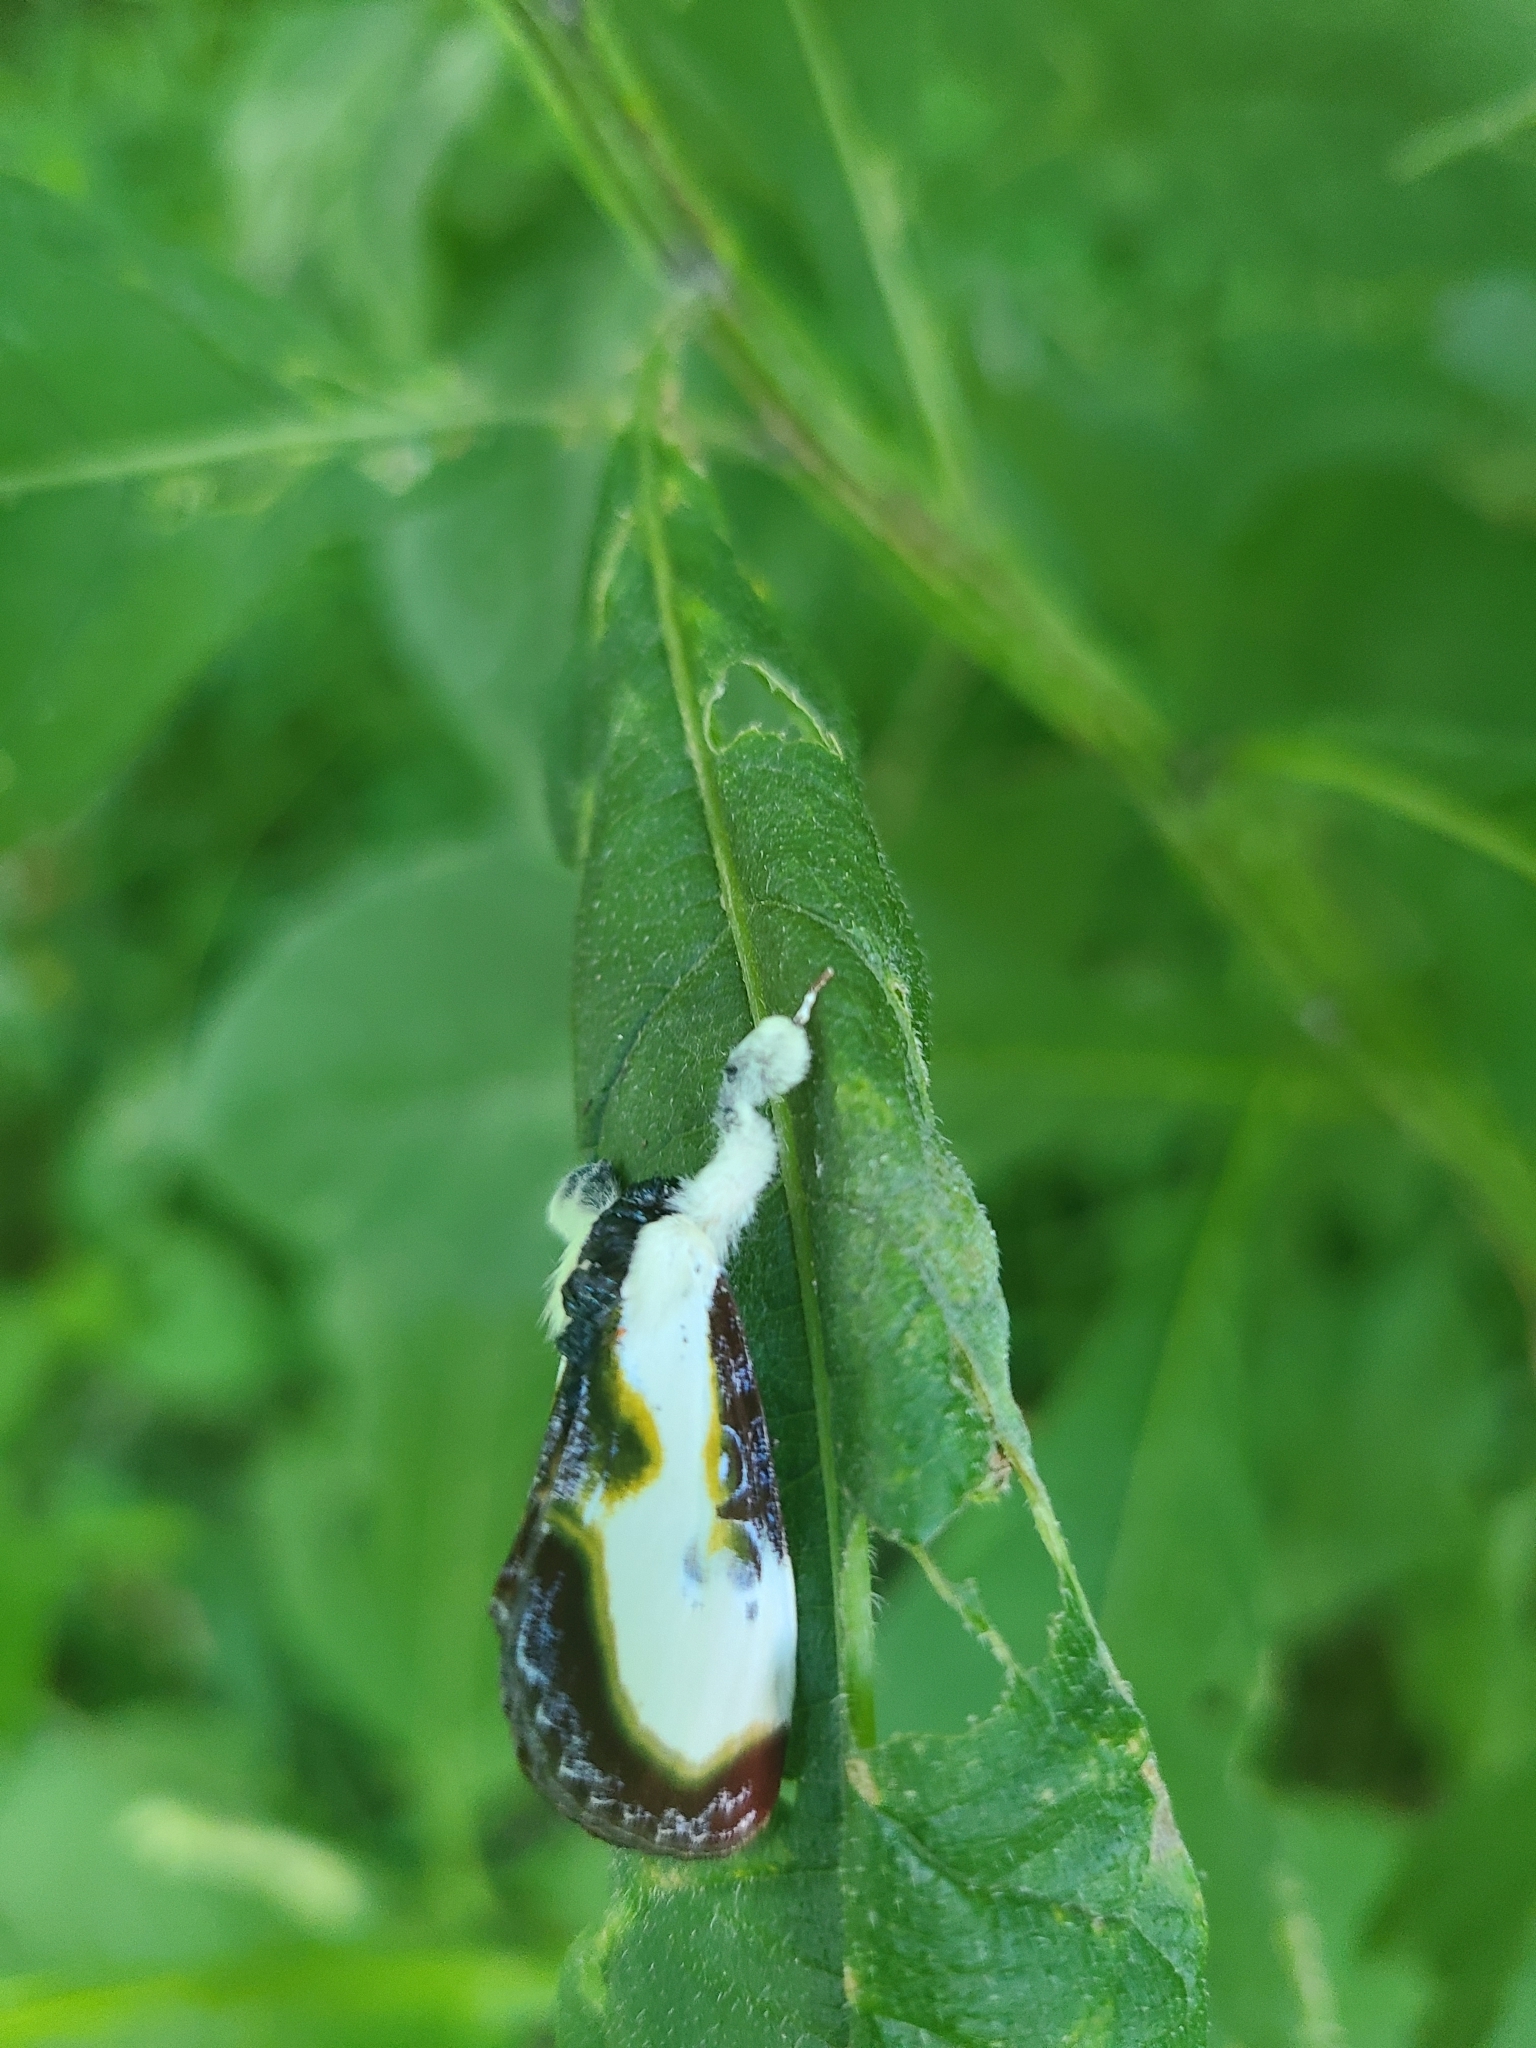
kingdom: Animalia
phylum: Arthropoda
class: Insecta
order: Lepidoptera
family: Noctuidae
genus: Eudryas
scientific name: Eudryas grata
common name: Beautiful wood-nymph
